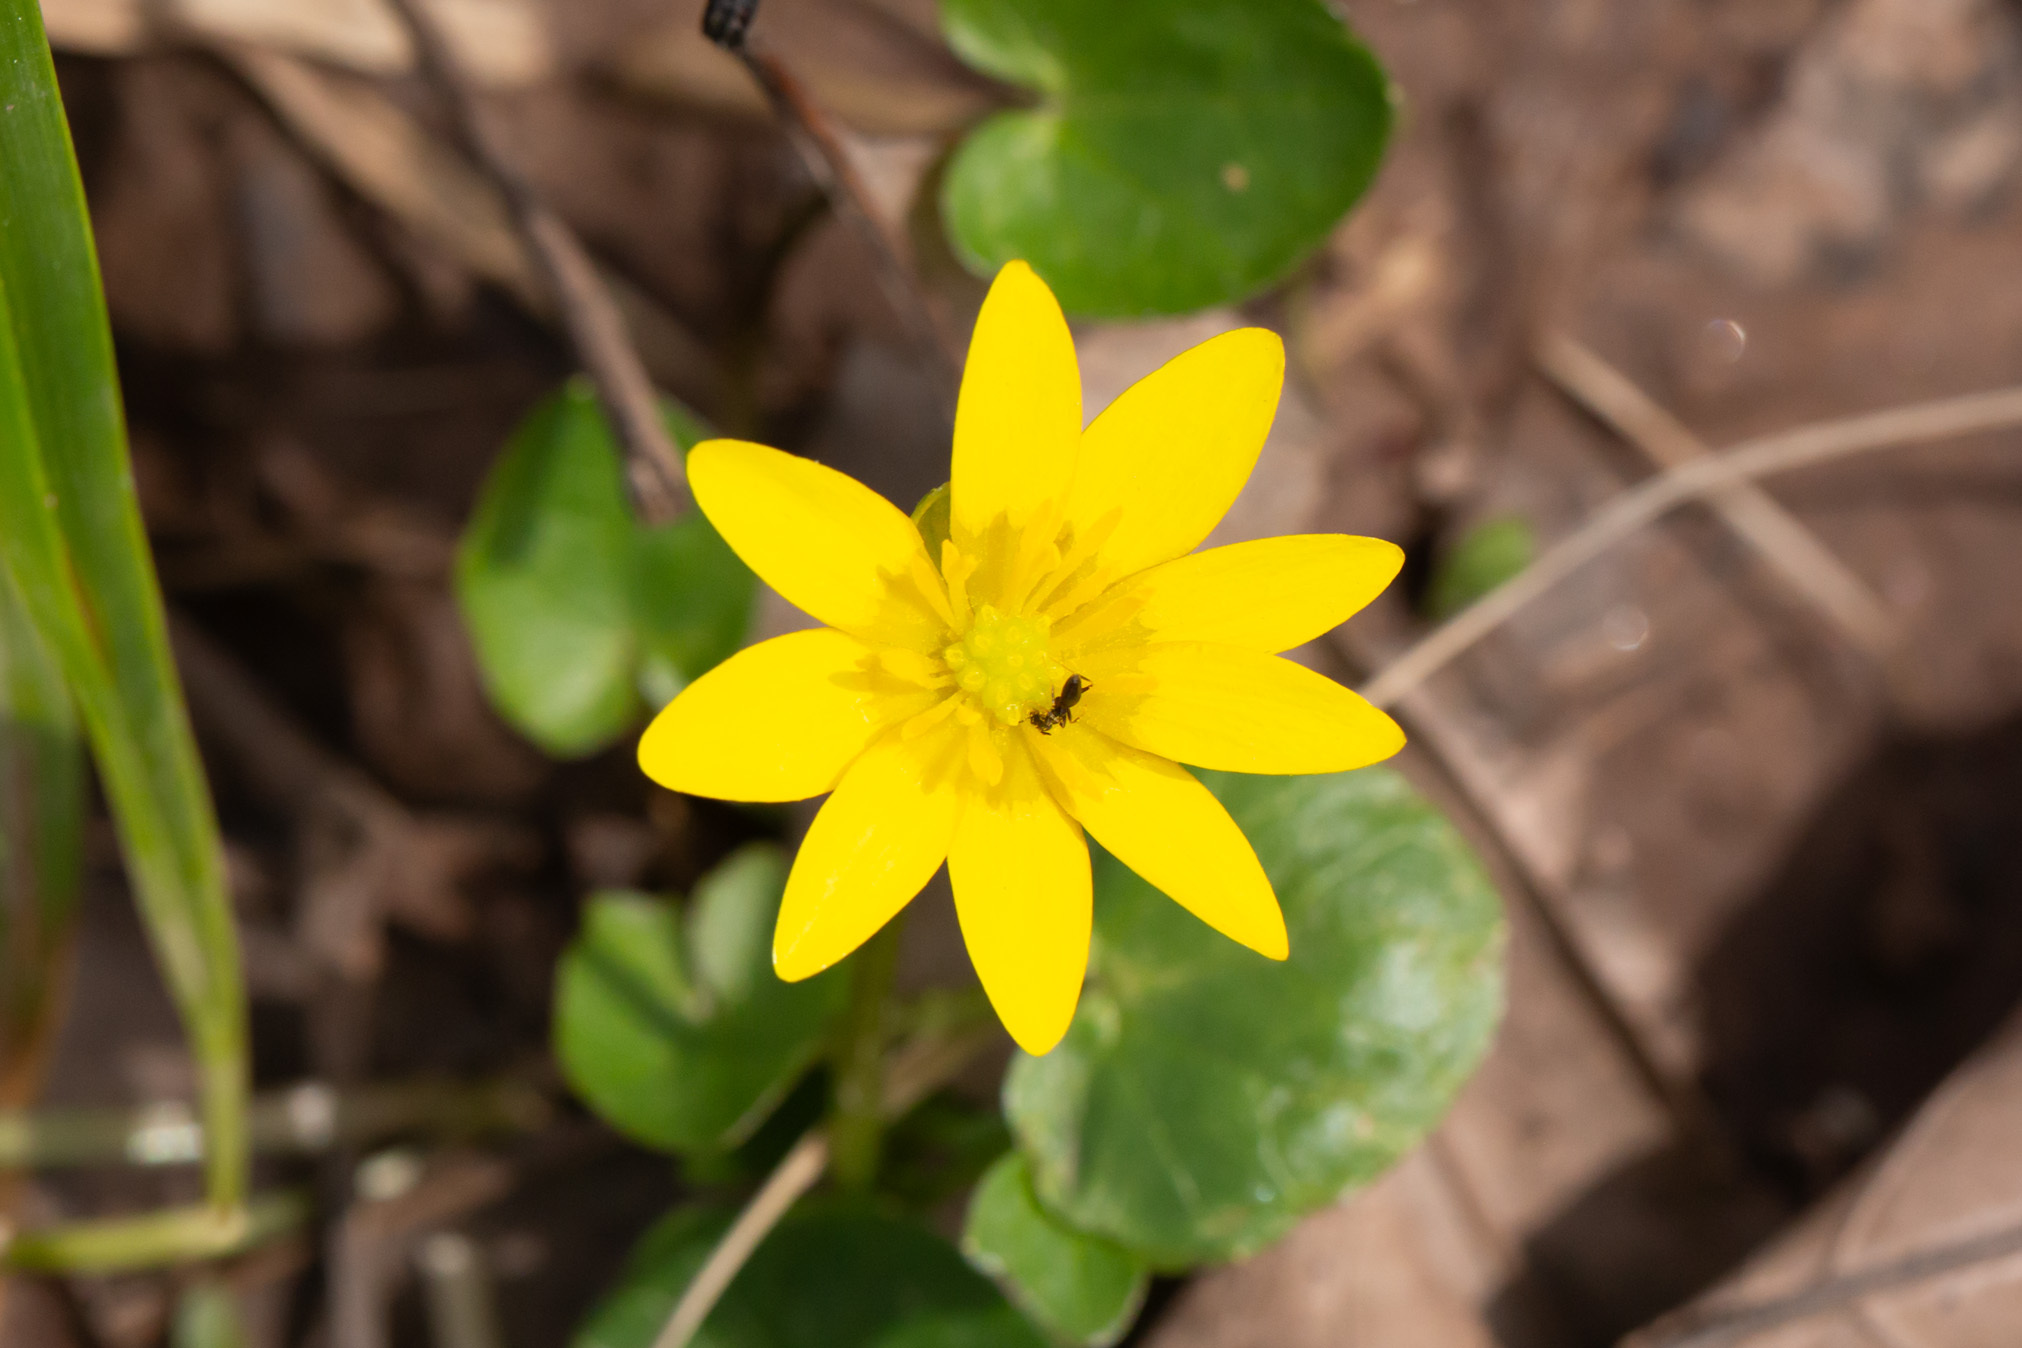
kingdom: Plantae
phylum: Tracheophyta
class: Magnoliopsida
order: Ranunculales
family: Ranunculaceae
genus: Ficaria
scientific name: Ficaria verna
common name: Lesser celandine
